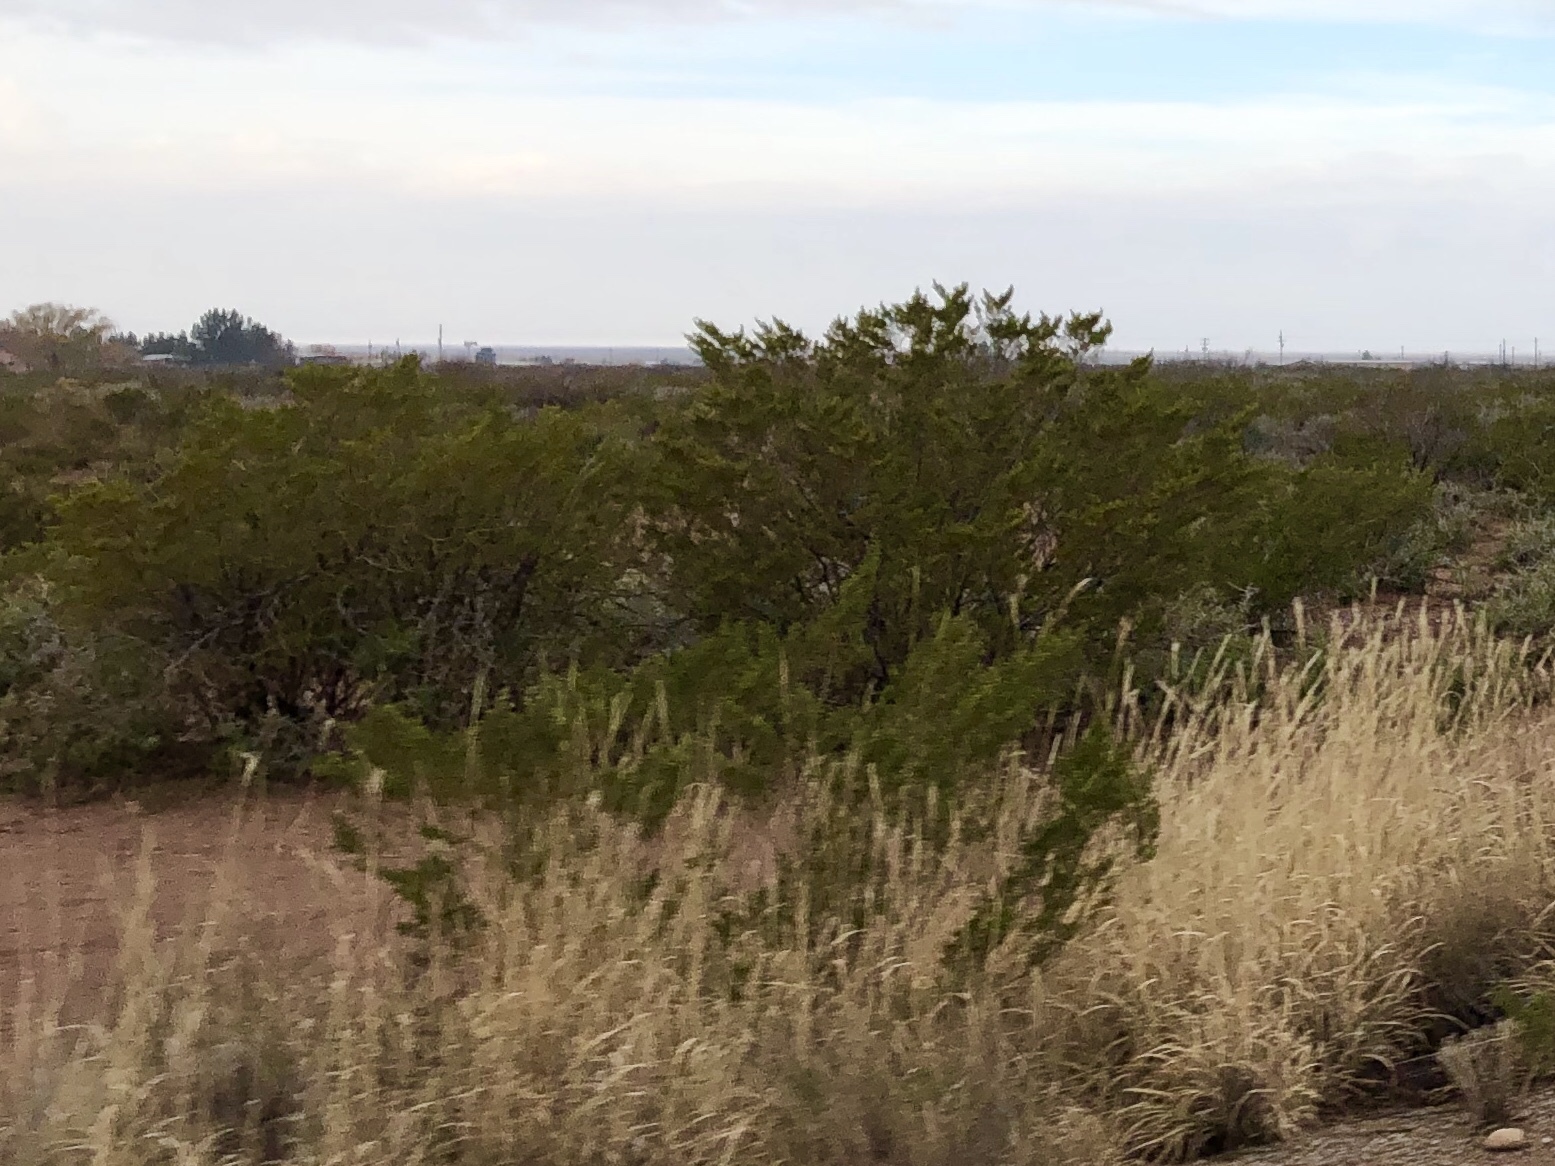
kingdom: Plantae
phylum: Tracheophyta
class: Magnoliopsida
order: Zygophyllales
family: Zygophyllaceae
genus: Larrea
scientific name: Larrea tridentata
